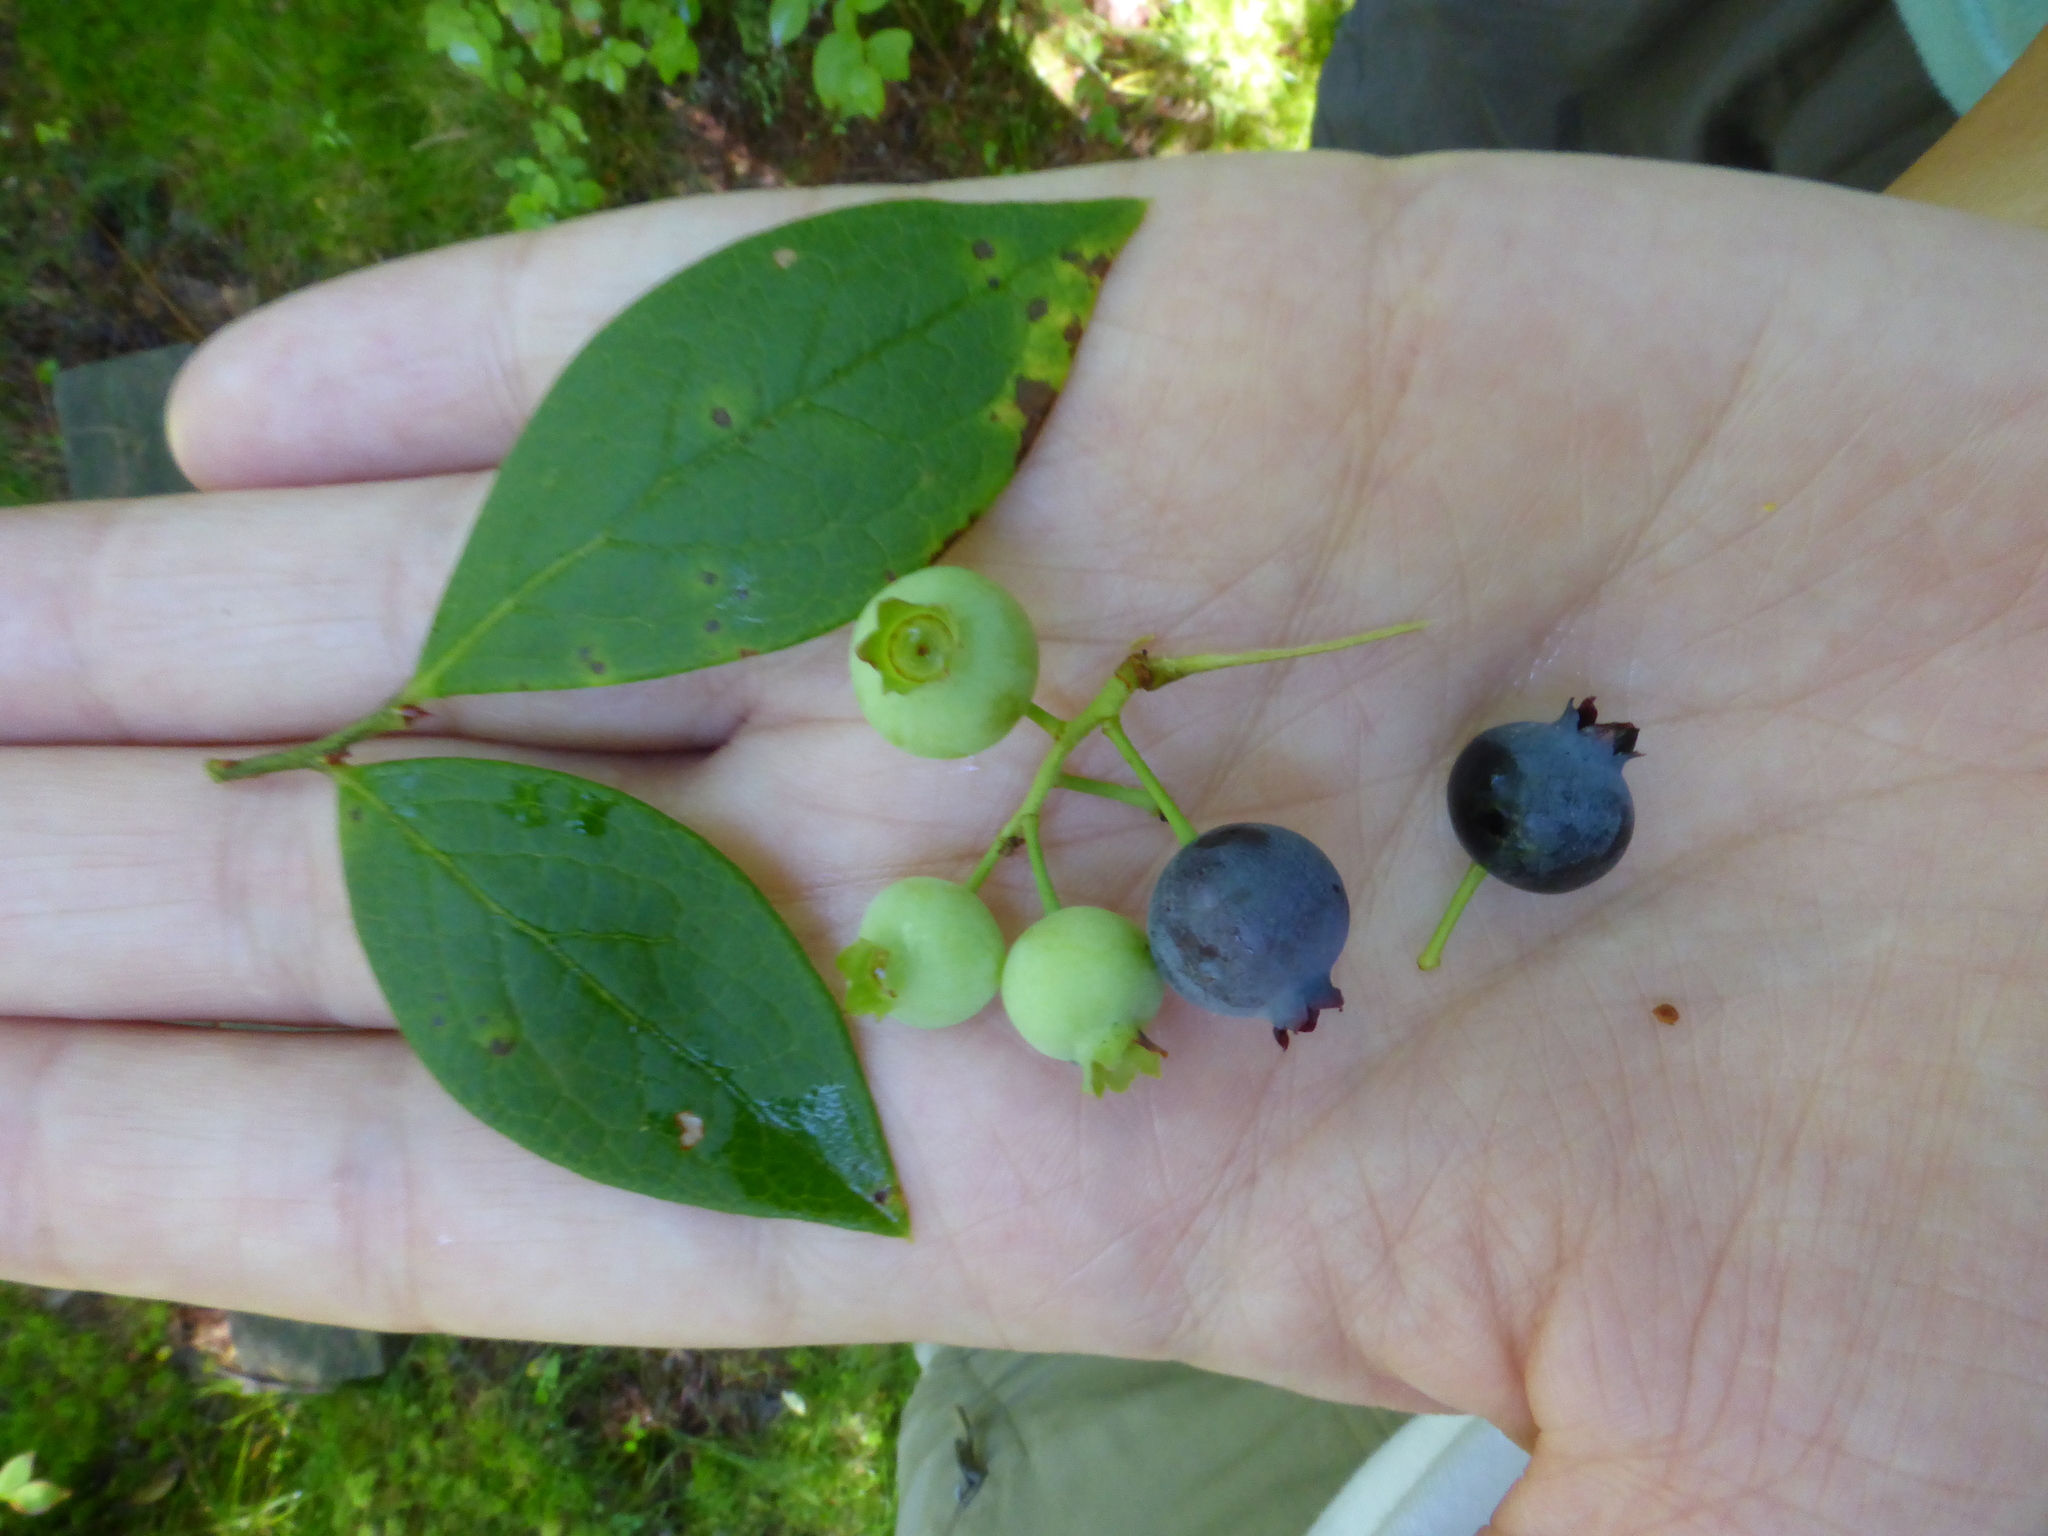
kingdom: Plantae
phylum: Tracheophyta
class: Magnoliopsida
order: Ericales
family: Ericaceae
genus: Vaccinium
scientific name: Vaccinium corymbosum
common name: Blueberry
